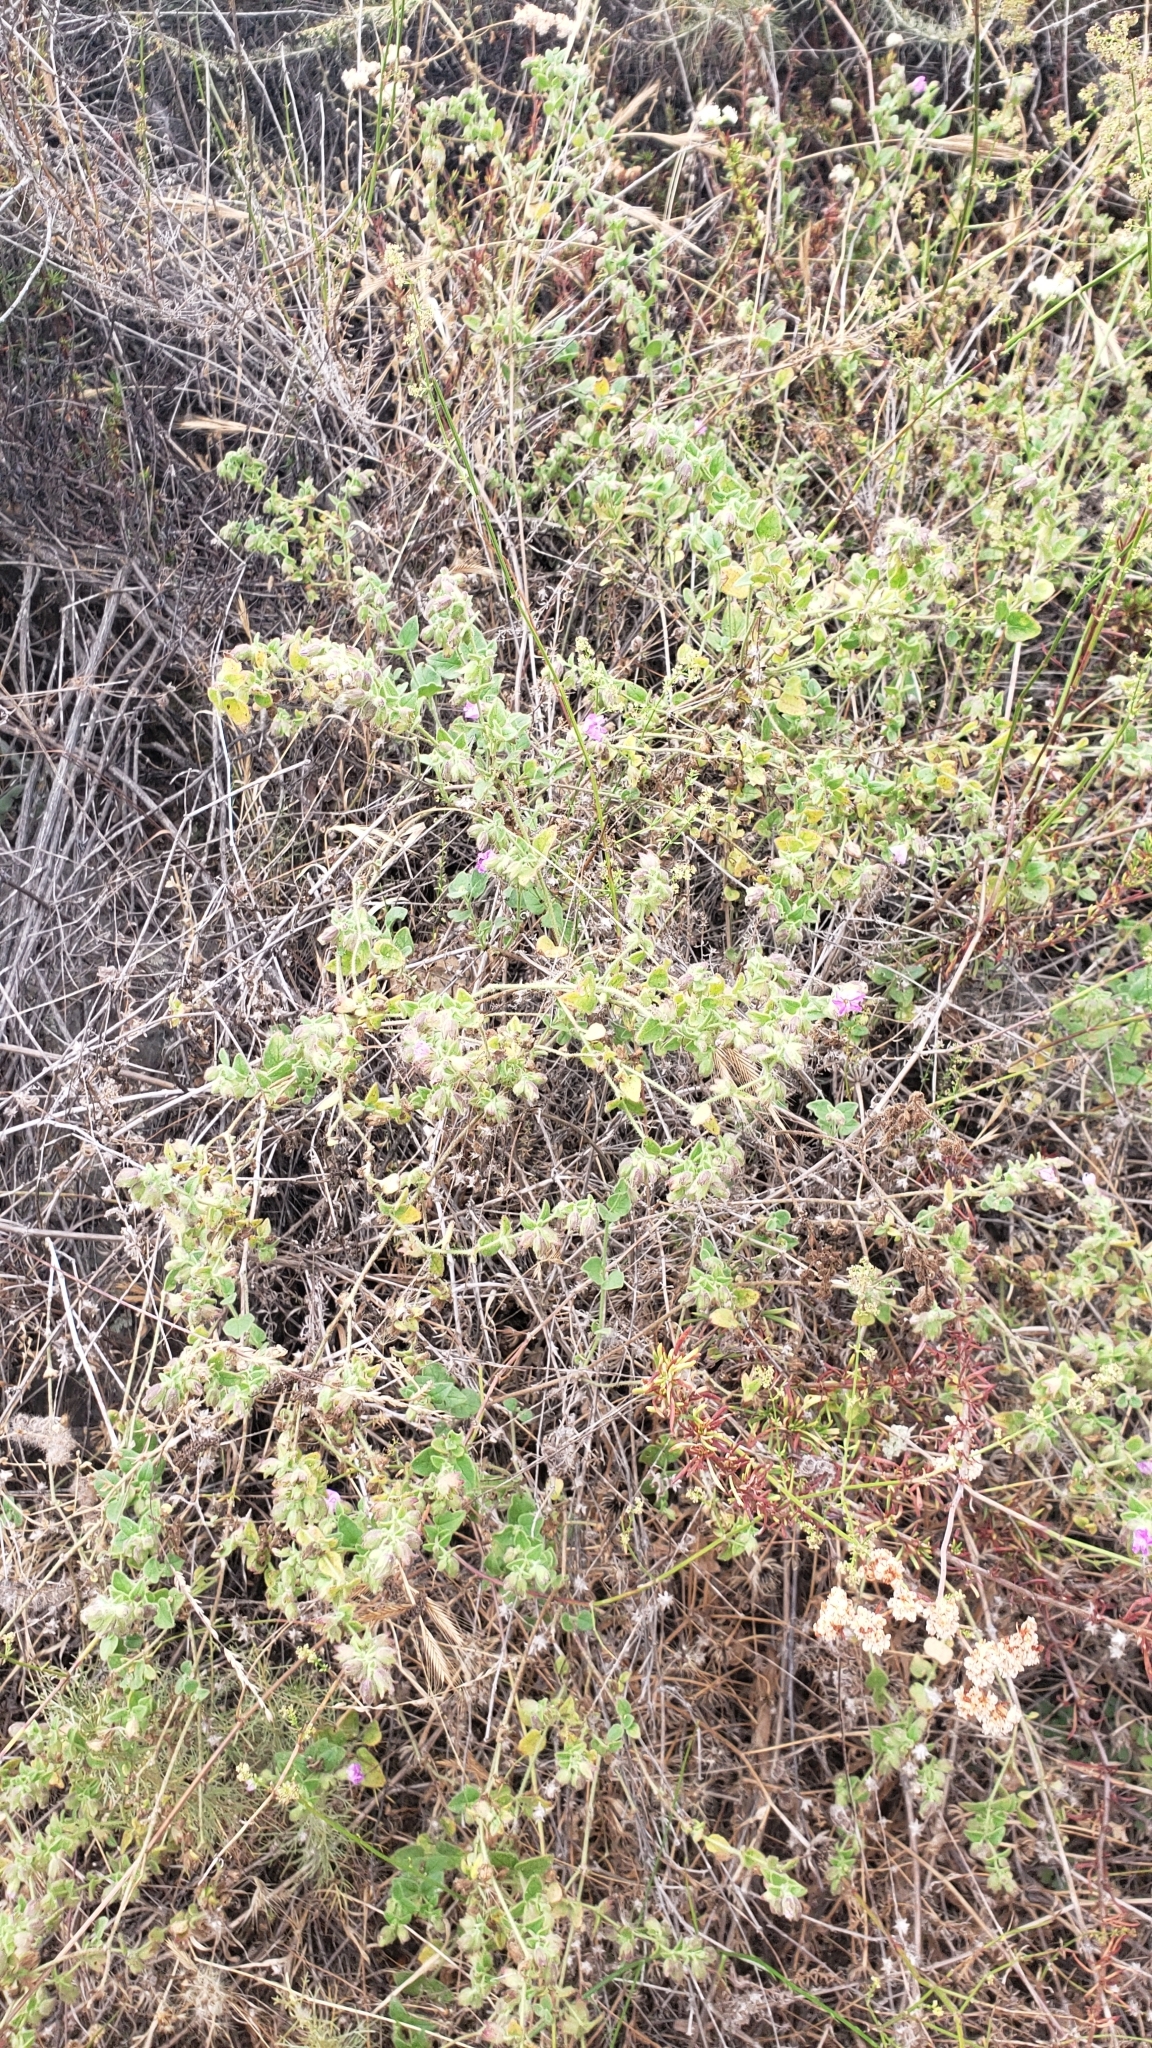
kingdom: Plantae
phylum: Tracheophyta
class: Magnoliopsida
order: Caryophyllales
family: Nyctaginaceae
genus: Mirabilis
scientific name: Mirabilis laevis
